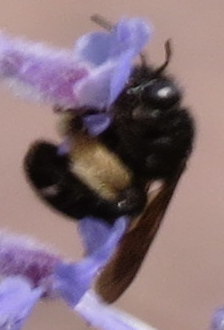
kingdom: Animalia
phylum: Arthropoda
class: Insecta
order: Hymenoptera
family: Apidae
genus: Melissodes
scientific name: Melissodes bimaculatus
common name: Two-spotted long-horned bee
